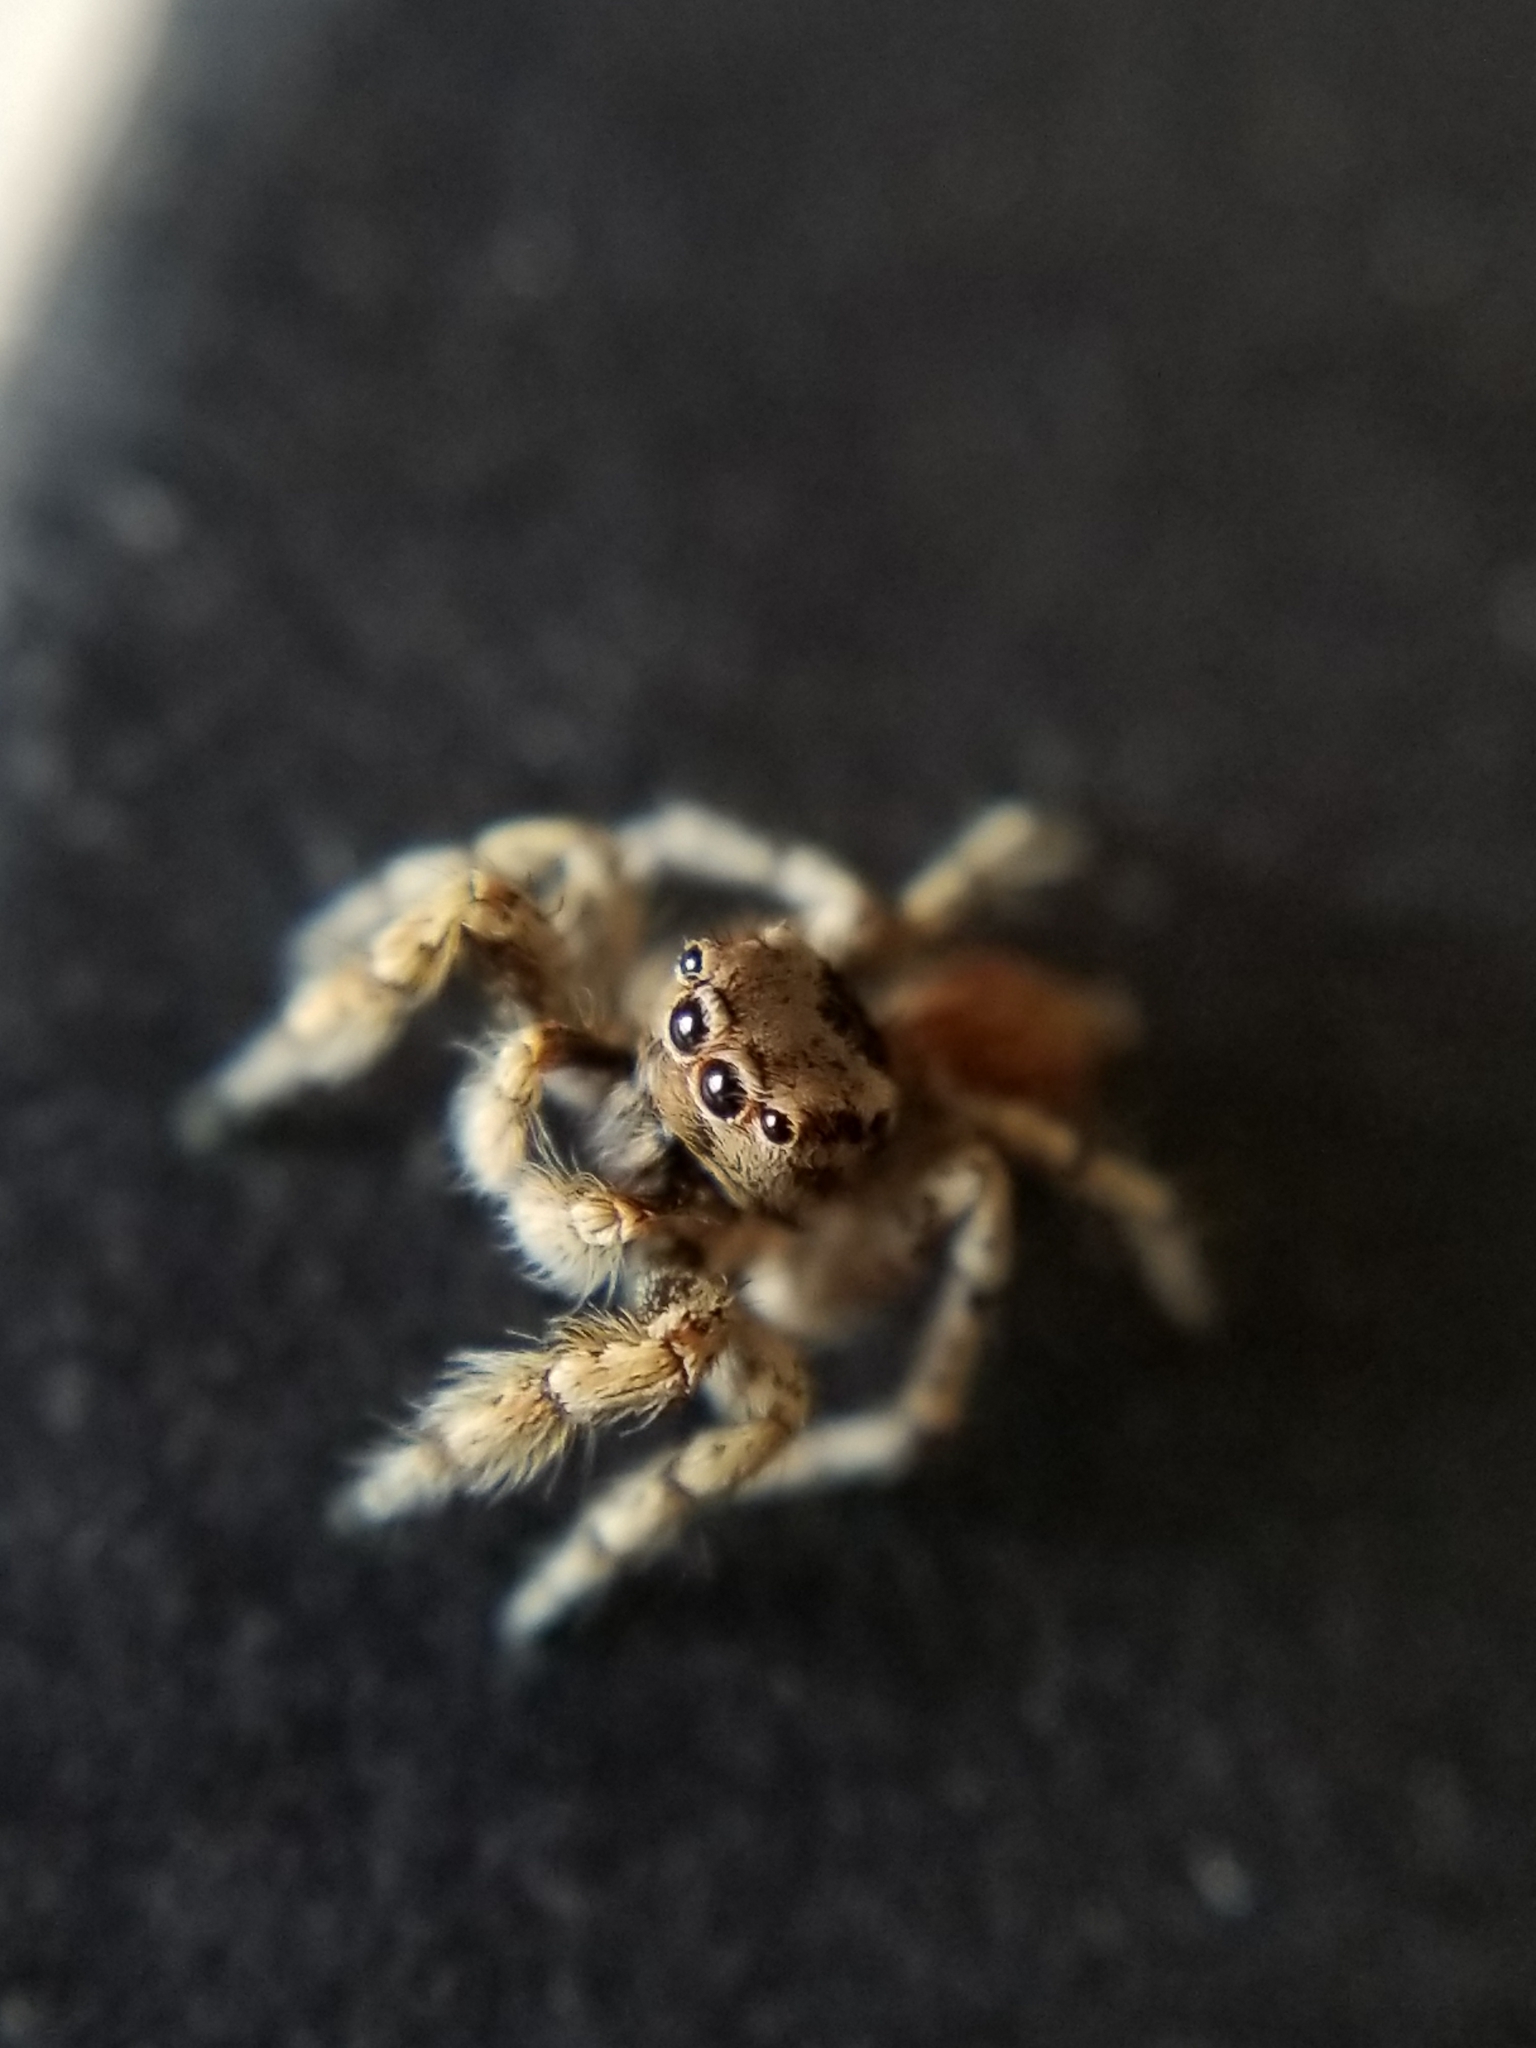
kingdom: Animalia
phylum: Arthropoda
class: Arachnida
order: Araneae
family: Salticidae
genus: Habronattus
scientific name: Habronattus amicus
